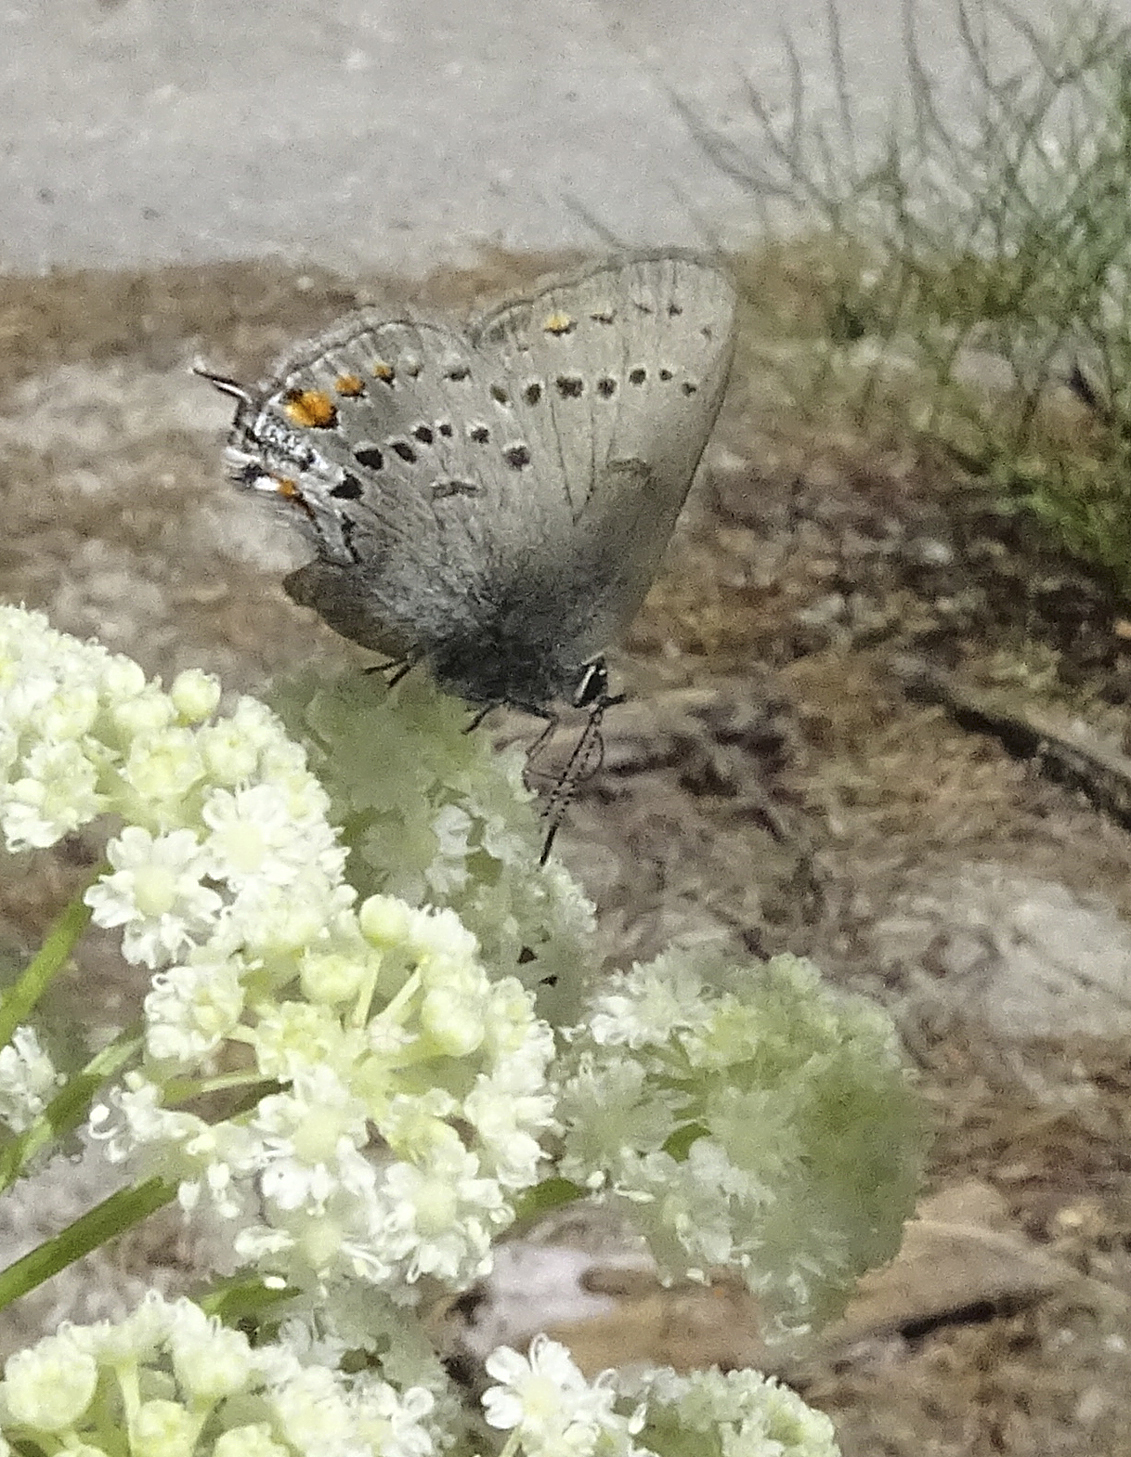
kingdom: Animalia
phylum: Arthropoda
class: Insecta
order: Lepidoptera
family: Lycaenidae
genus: Strymon
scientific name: Strymon acadica
